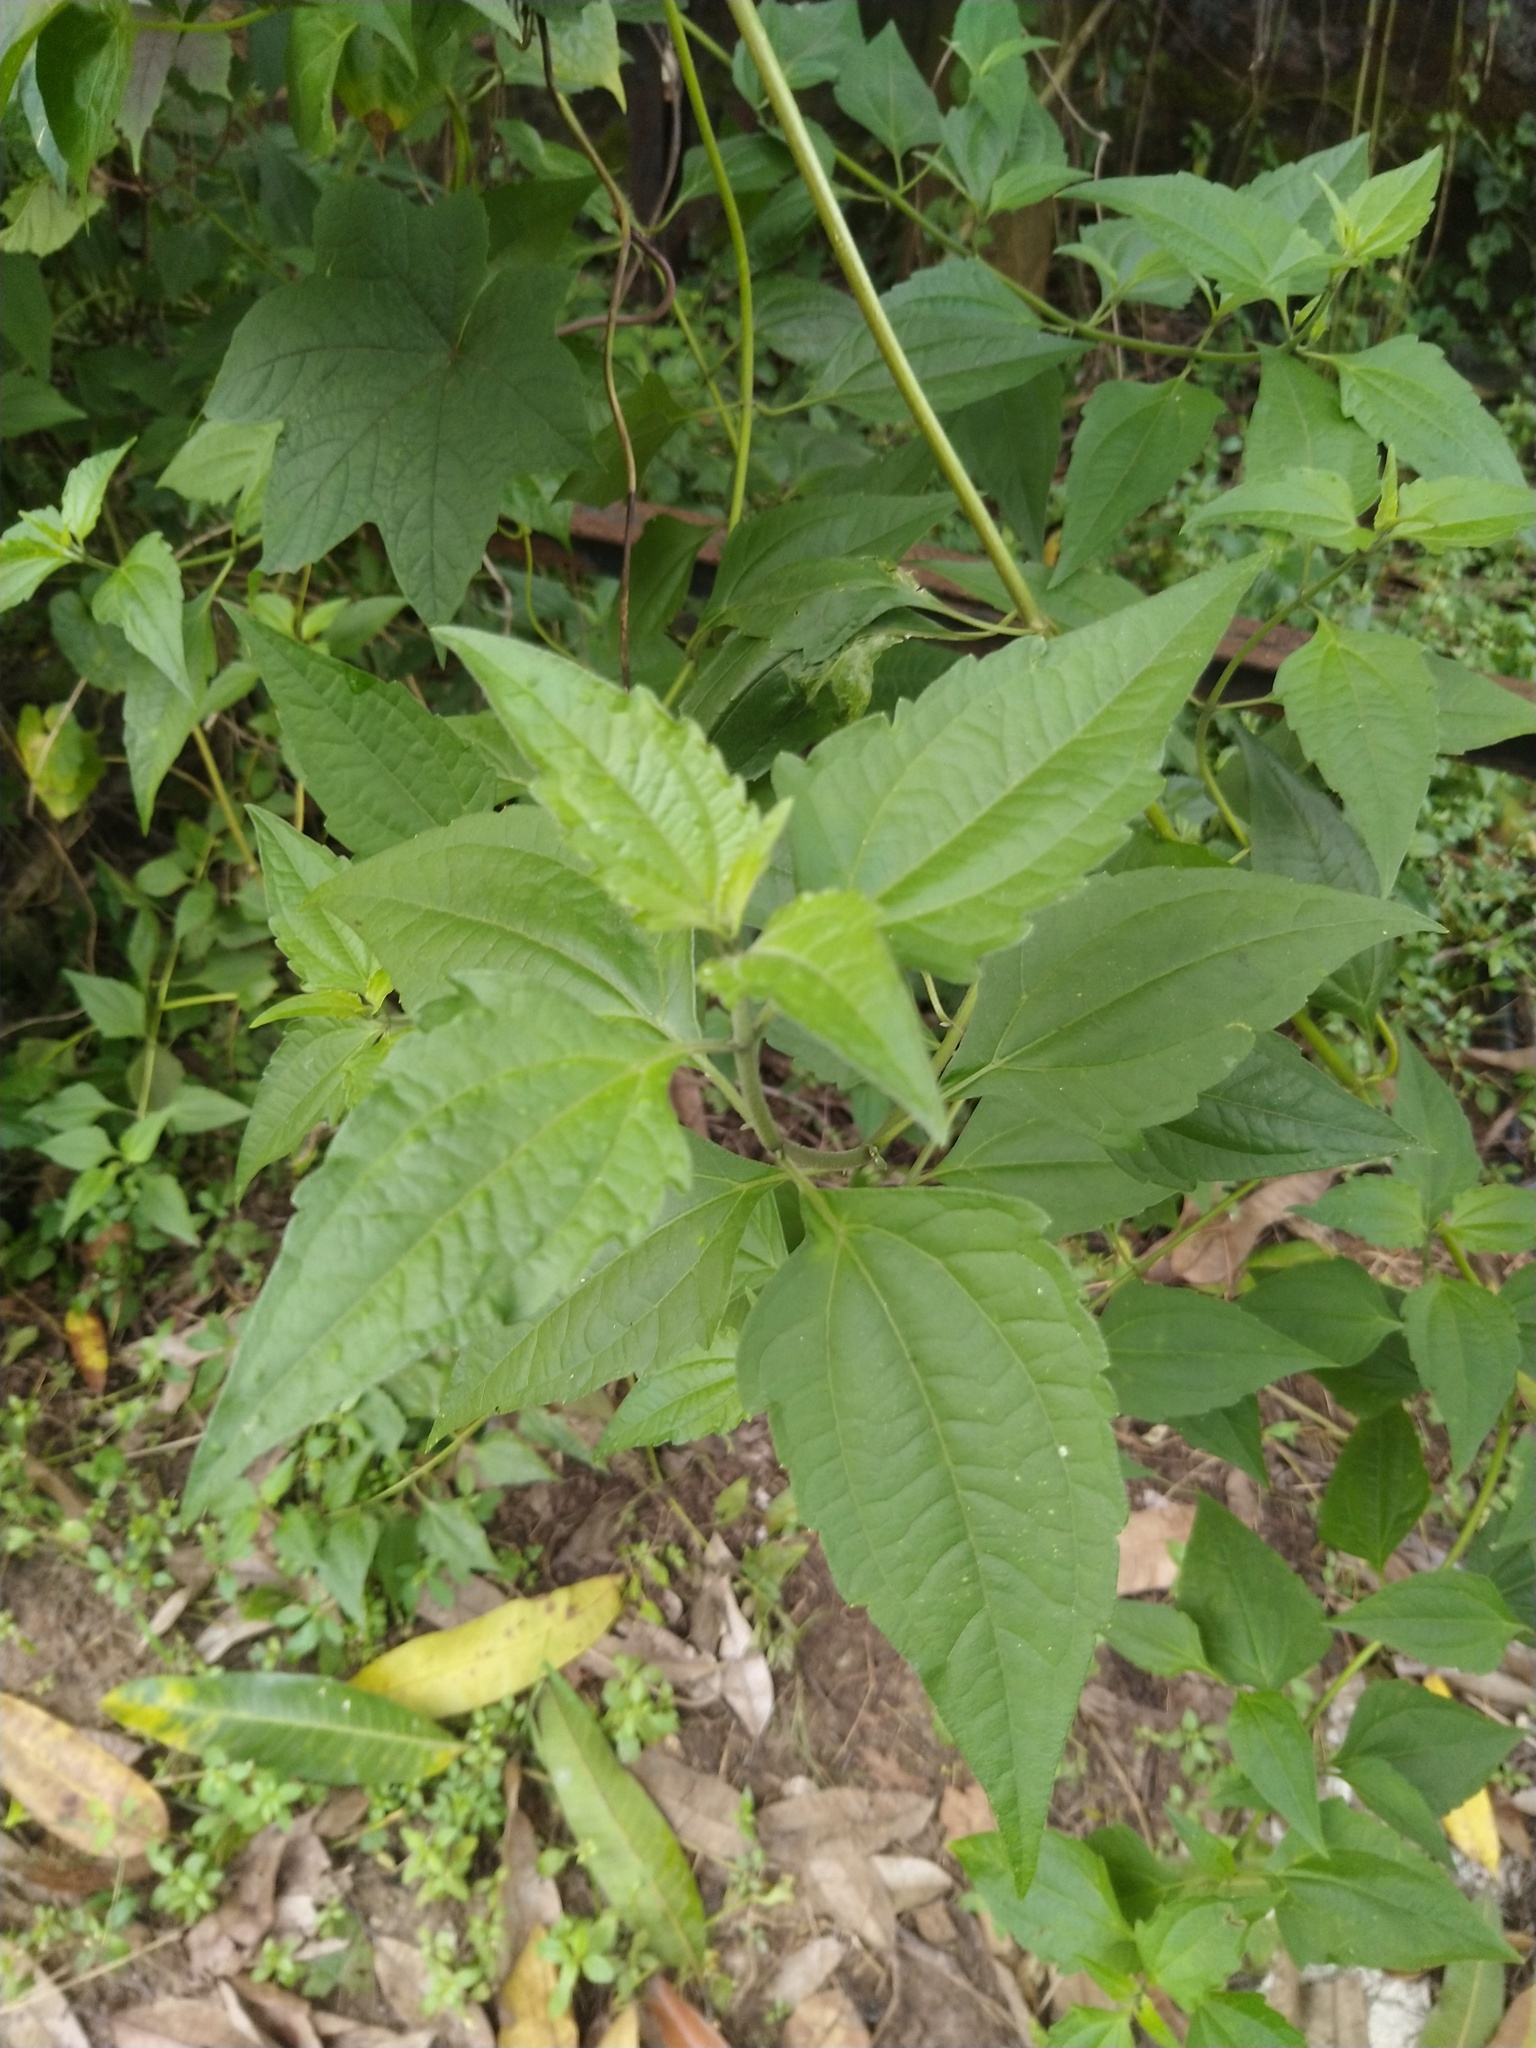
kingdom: Plantae
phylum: Tracheophyta
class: Magnoliopsida
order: Asterales
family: Asteraceae
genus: Chromolaena
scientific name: Chromolaena odorata
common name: Siamweed
